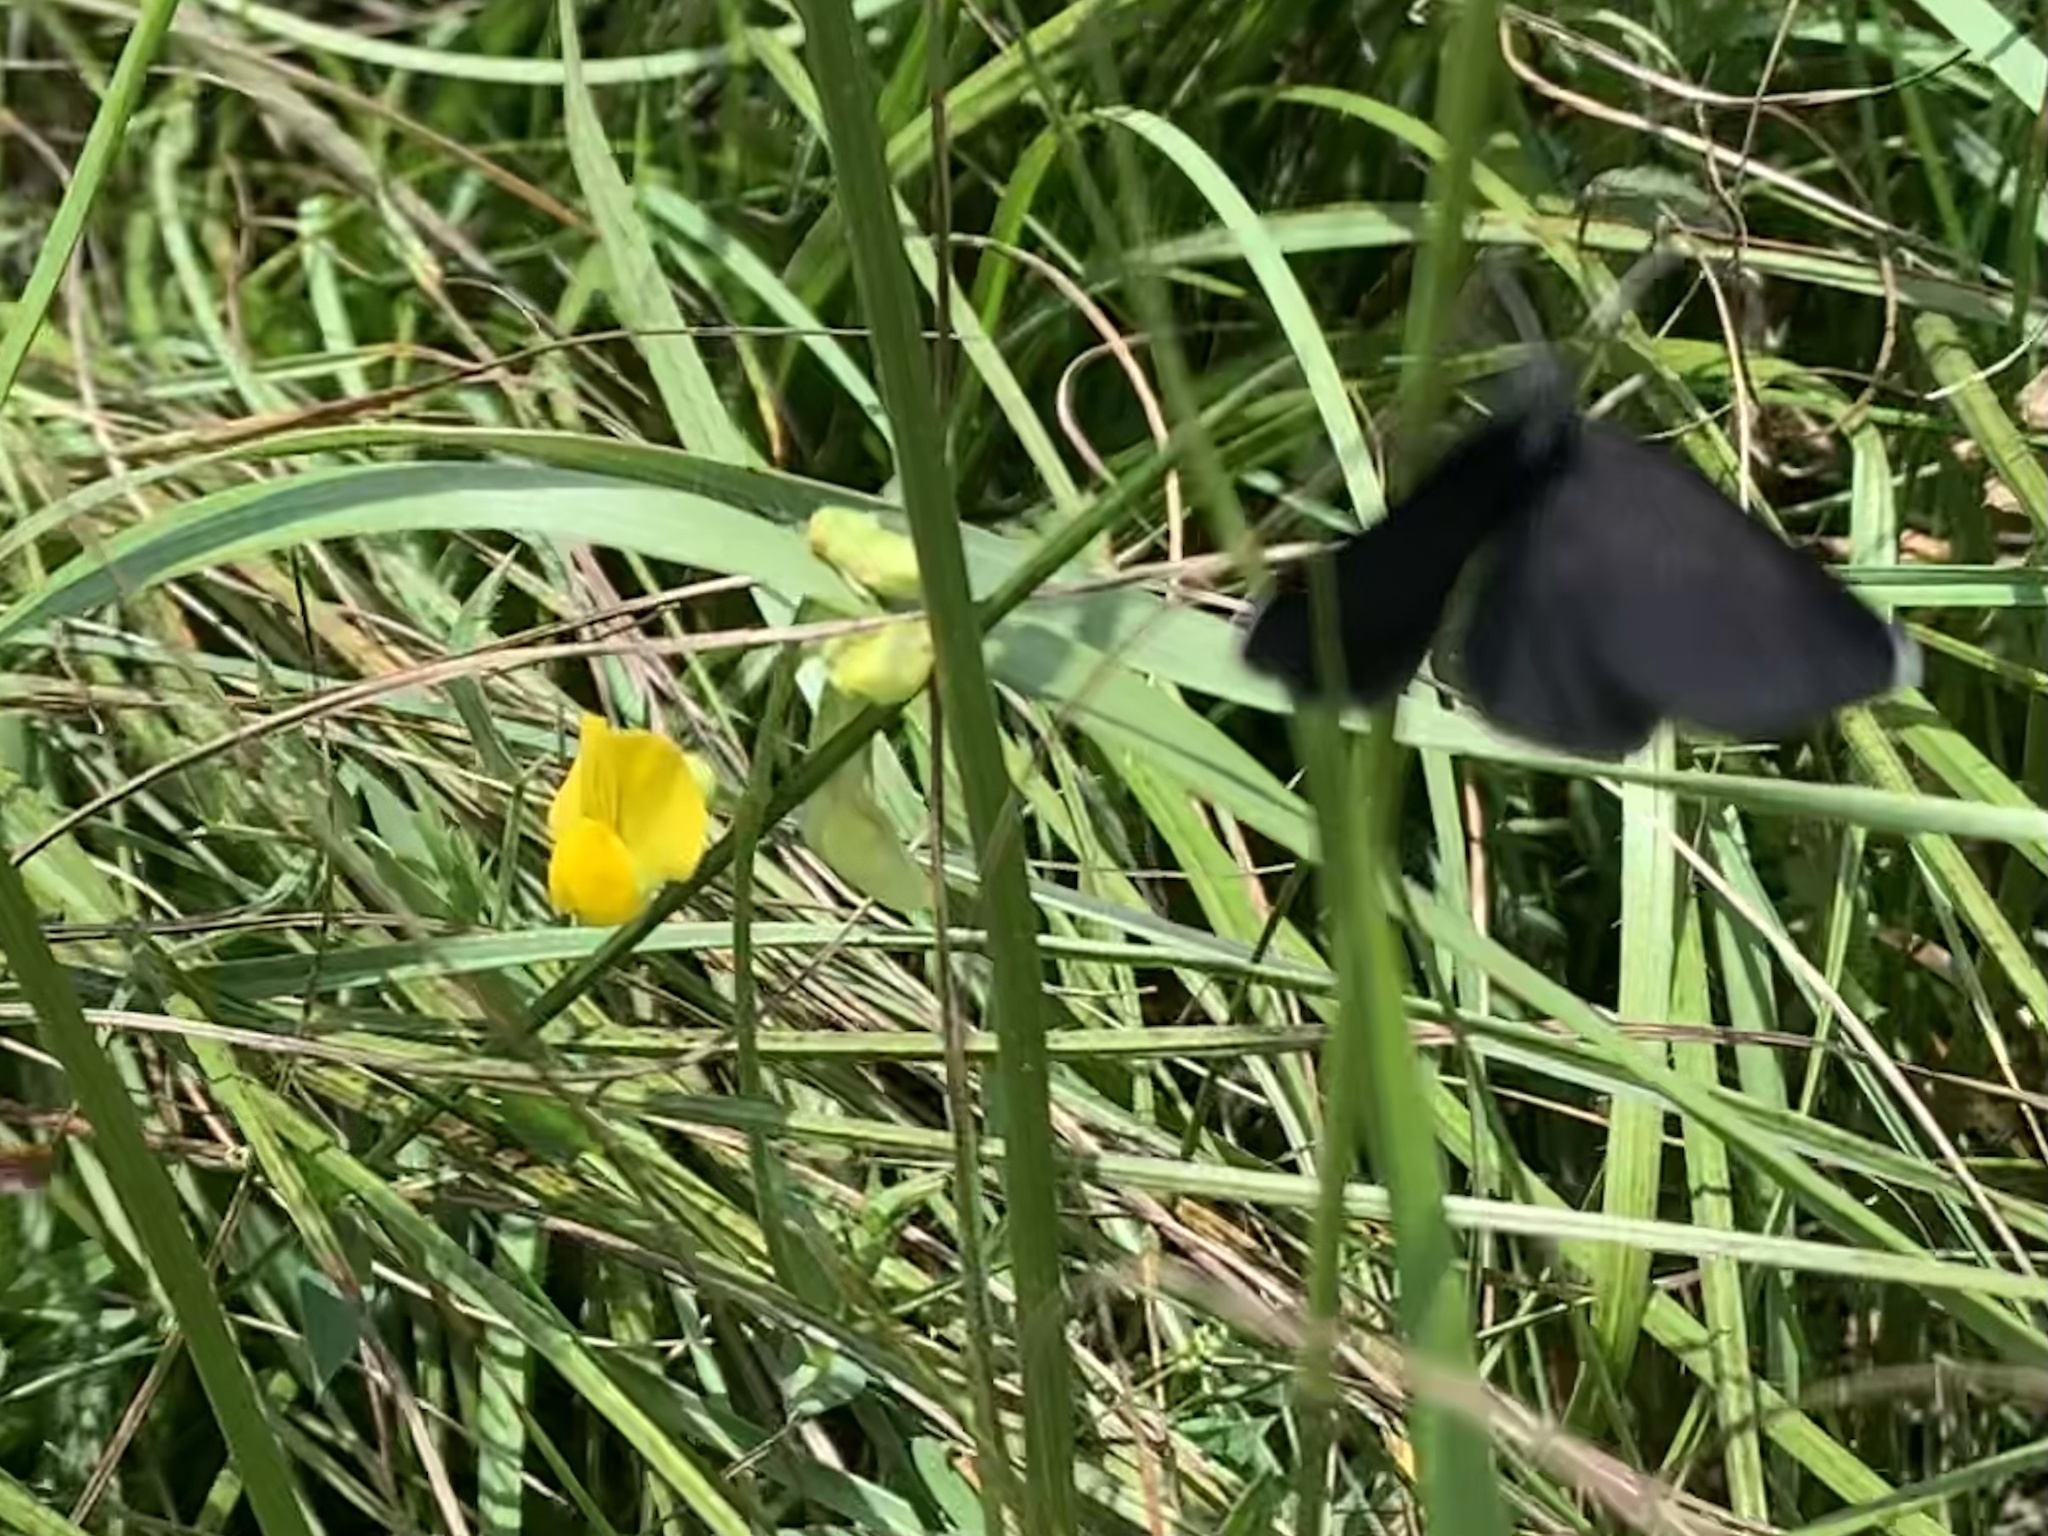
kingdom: Animalia
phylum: Arthropoda
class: Insecta
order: Lepidoptera
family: Geometridae
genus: Odezia
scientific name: Odezia atrata
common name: Chimney sweeper
